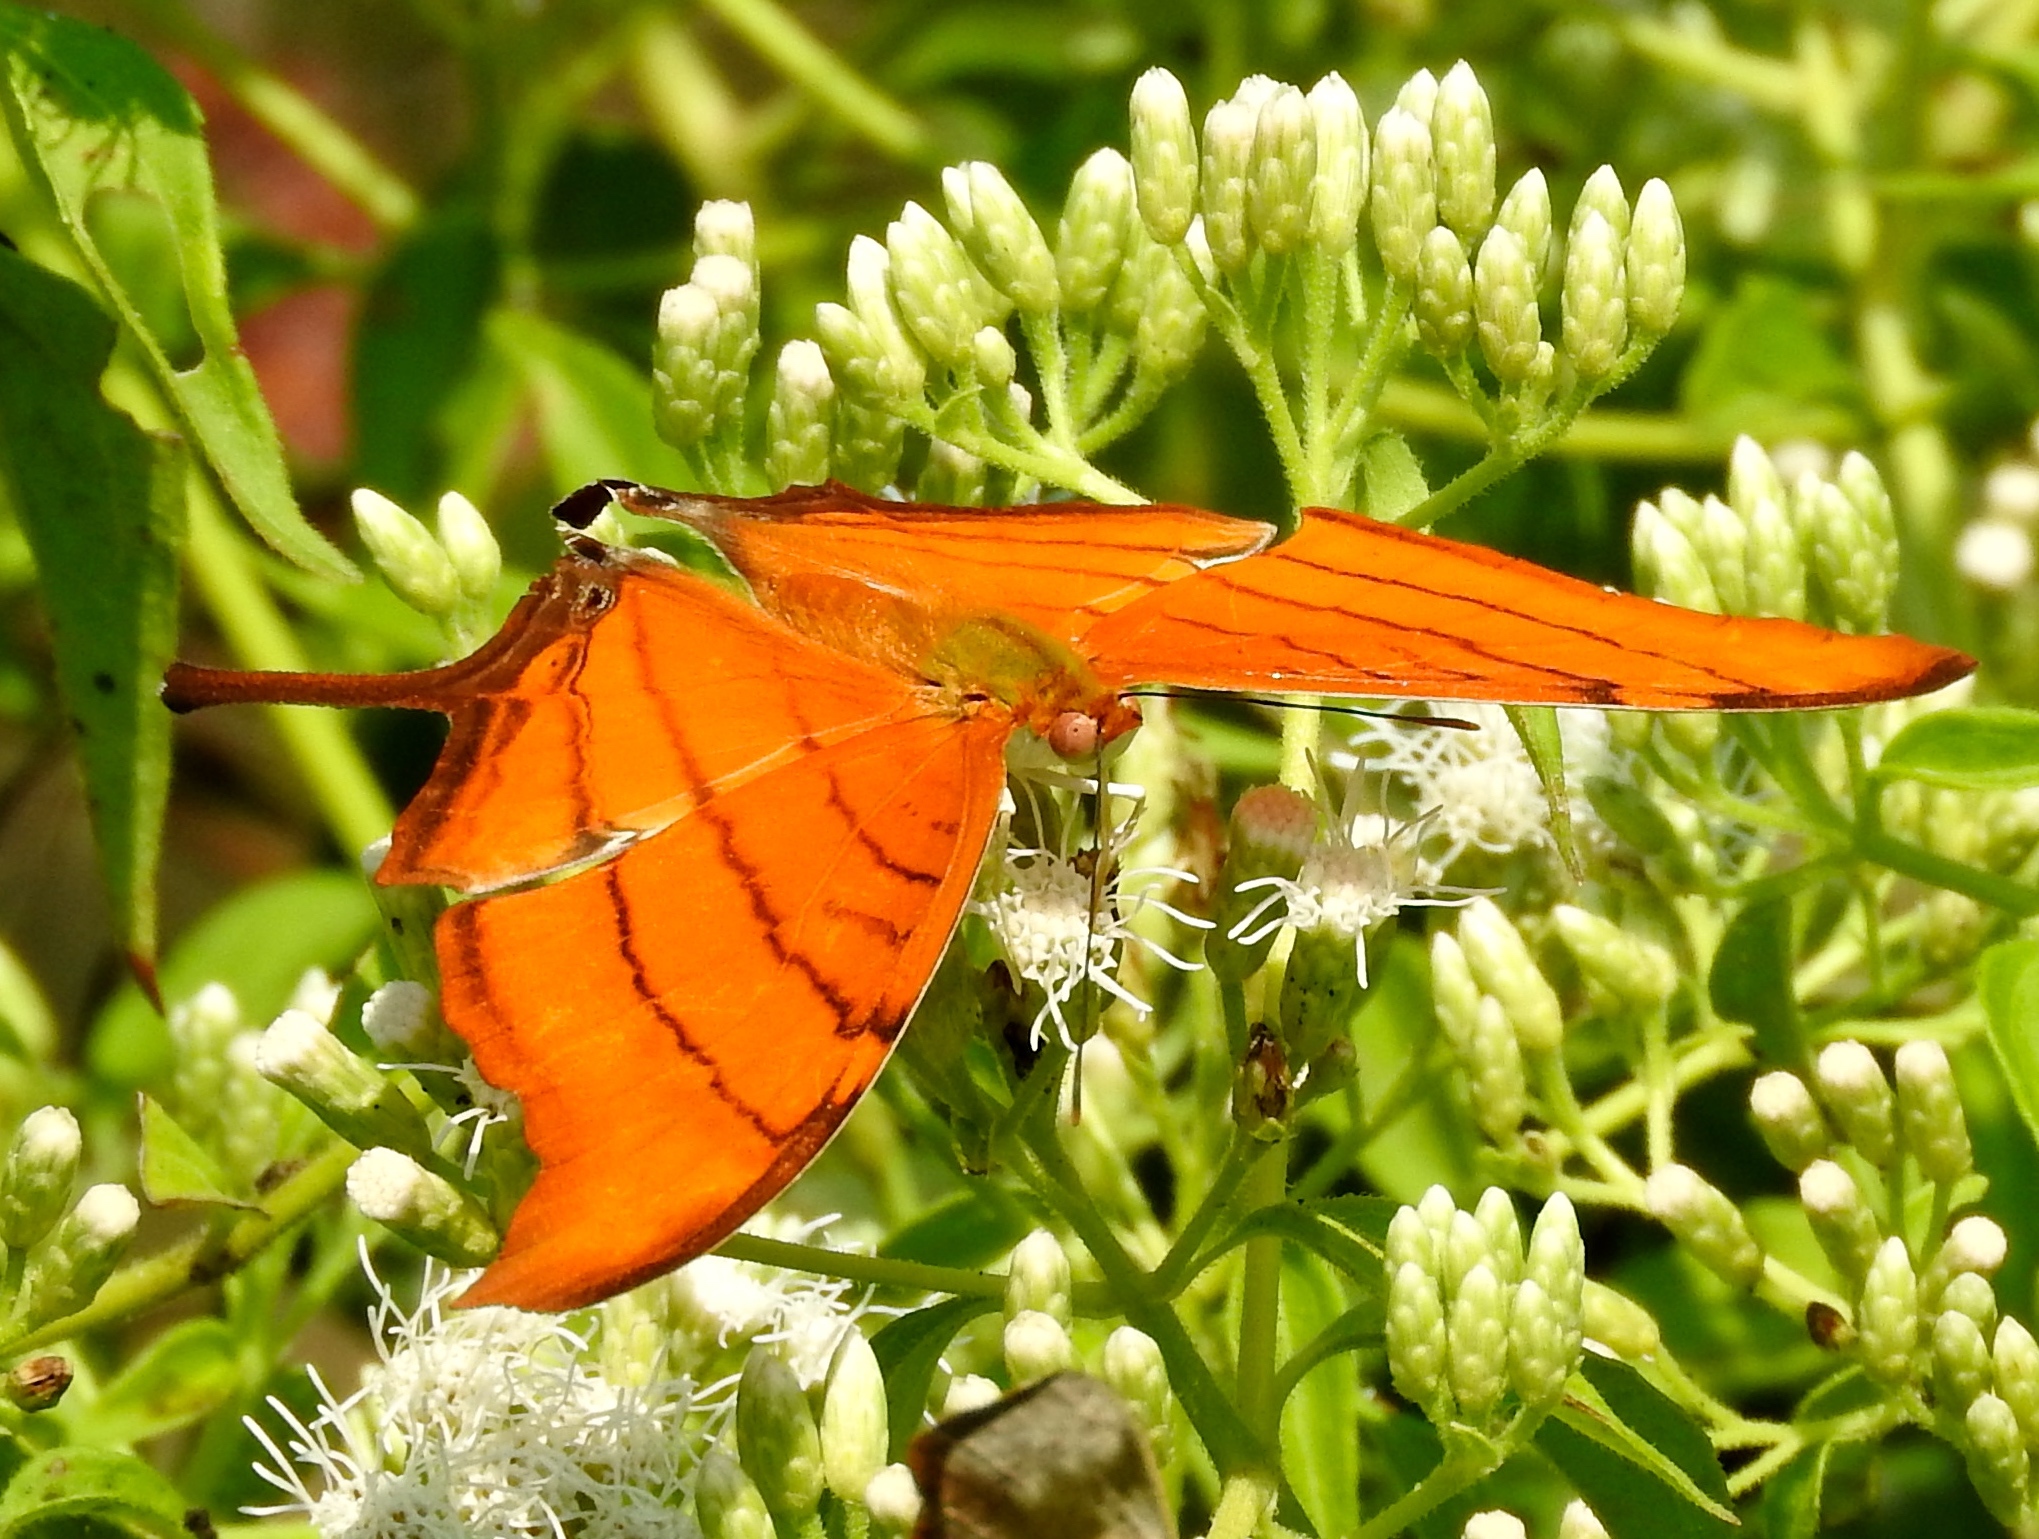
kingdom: Animalia
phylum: Arthropoda
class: Insecta
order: Lepidoptera
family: Nymphalidae
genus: Marpesia
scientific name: Marpesia petreus
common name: Red dagger wing
